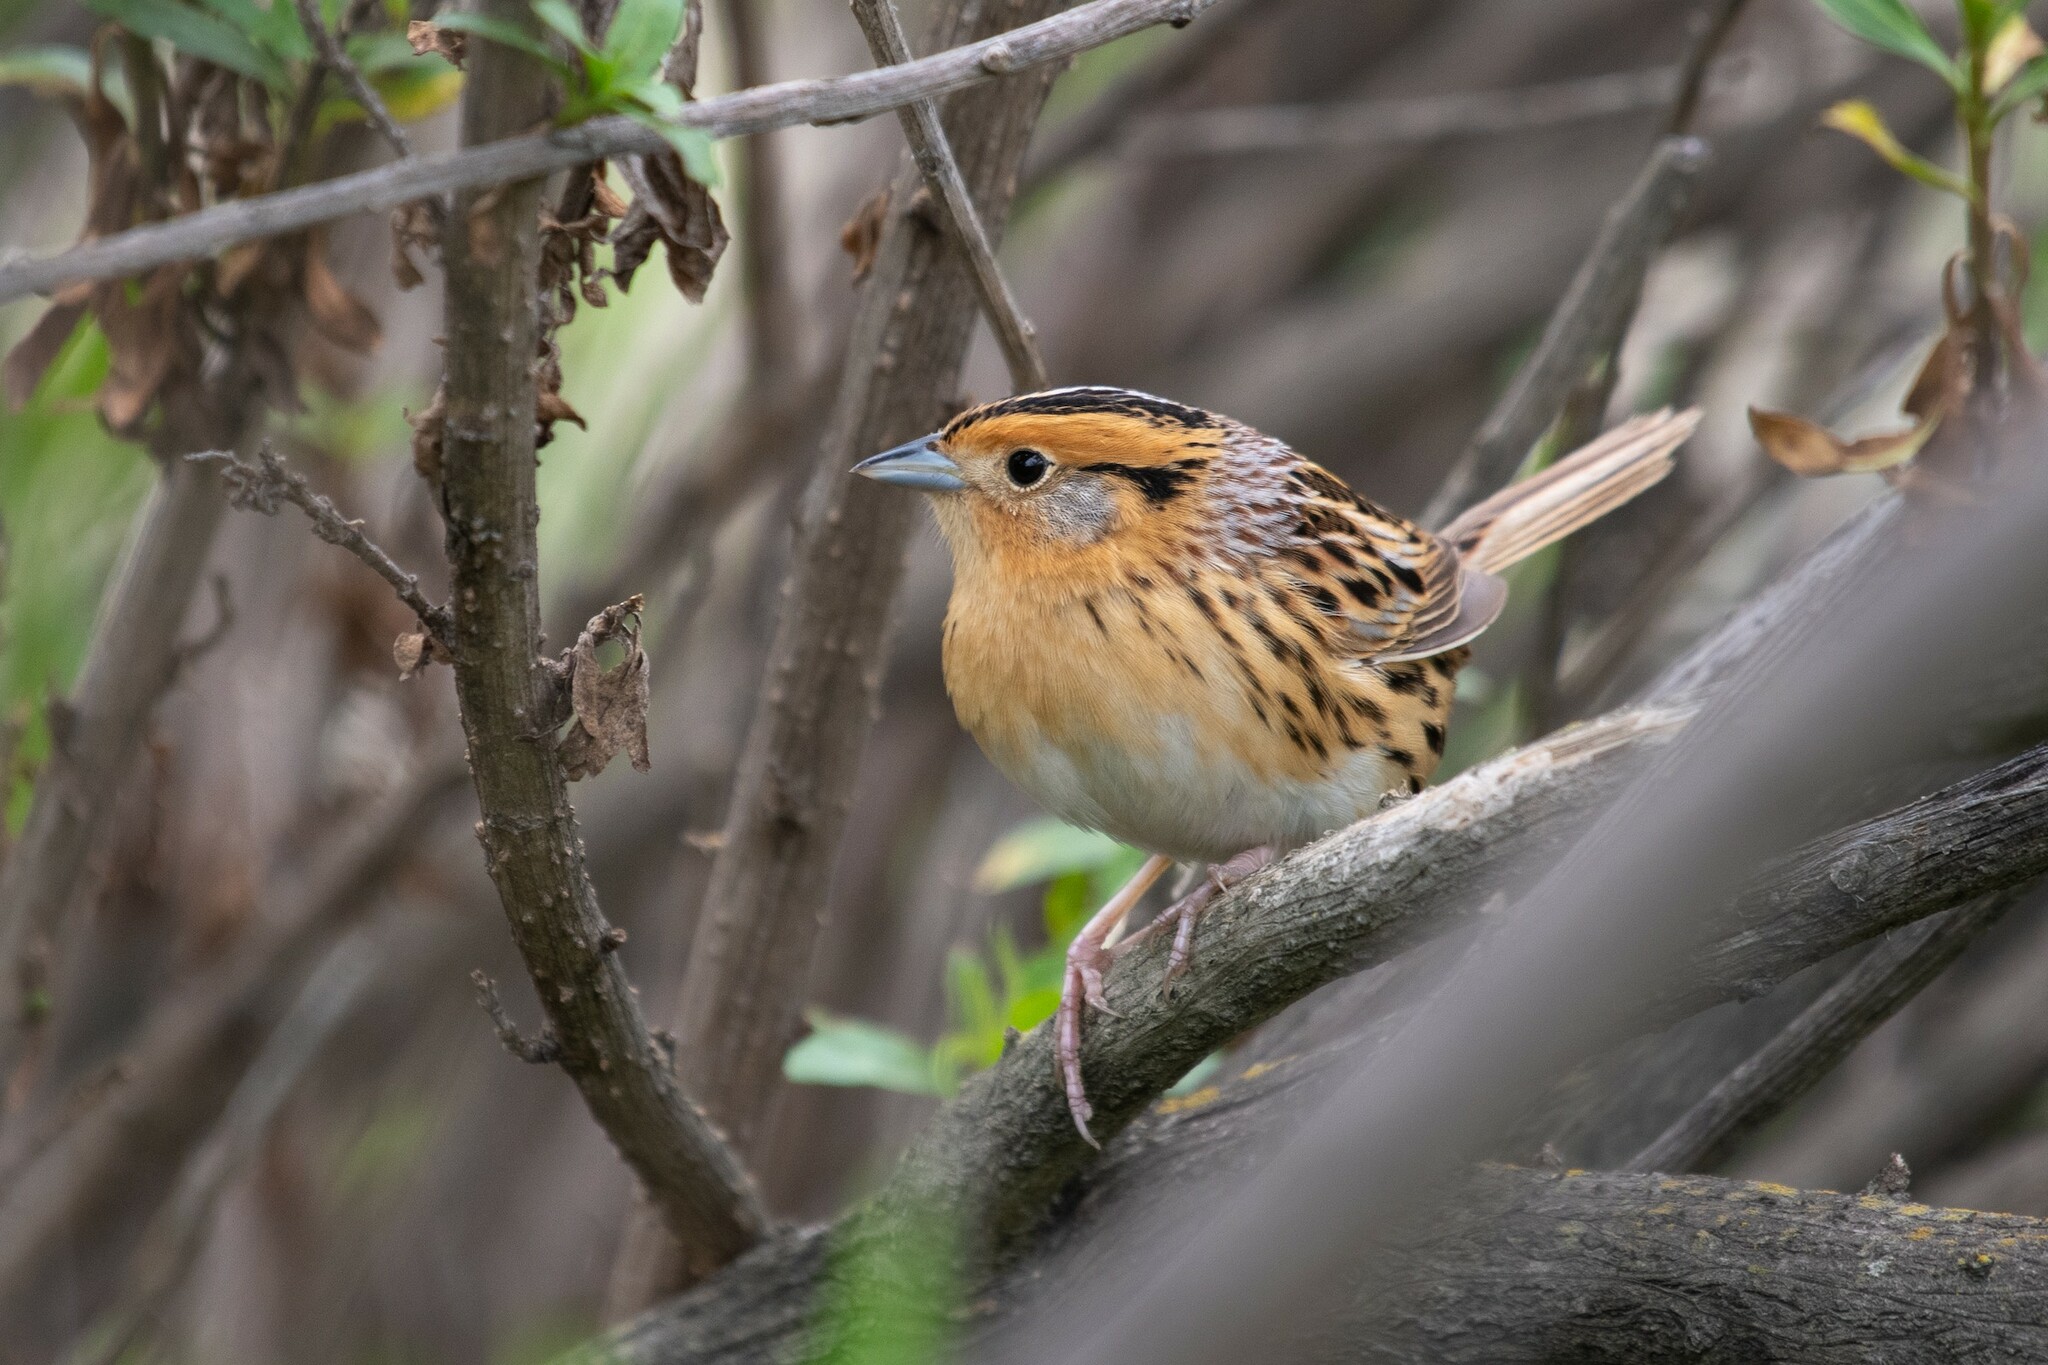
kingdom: Animalia
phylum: Chordata
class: Aves
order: Passeriformes
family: Passerellidae
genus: Ammospiza
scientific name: Ammospiza leconteii
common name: Le conte's sparrow
